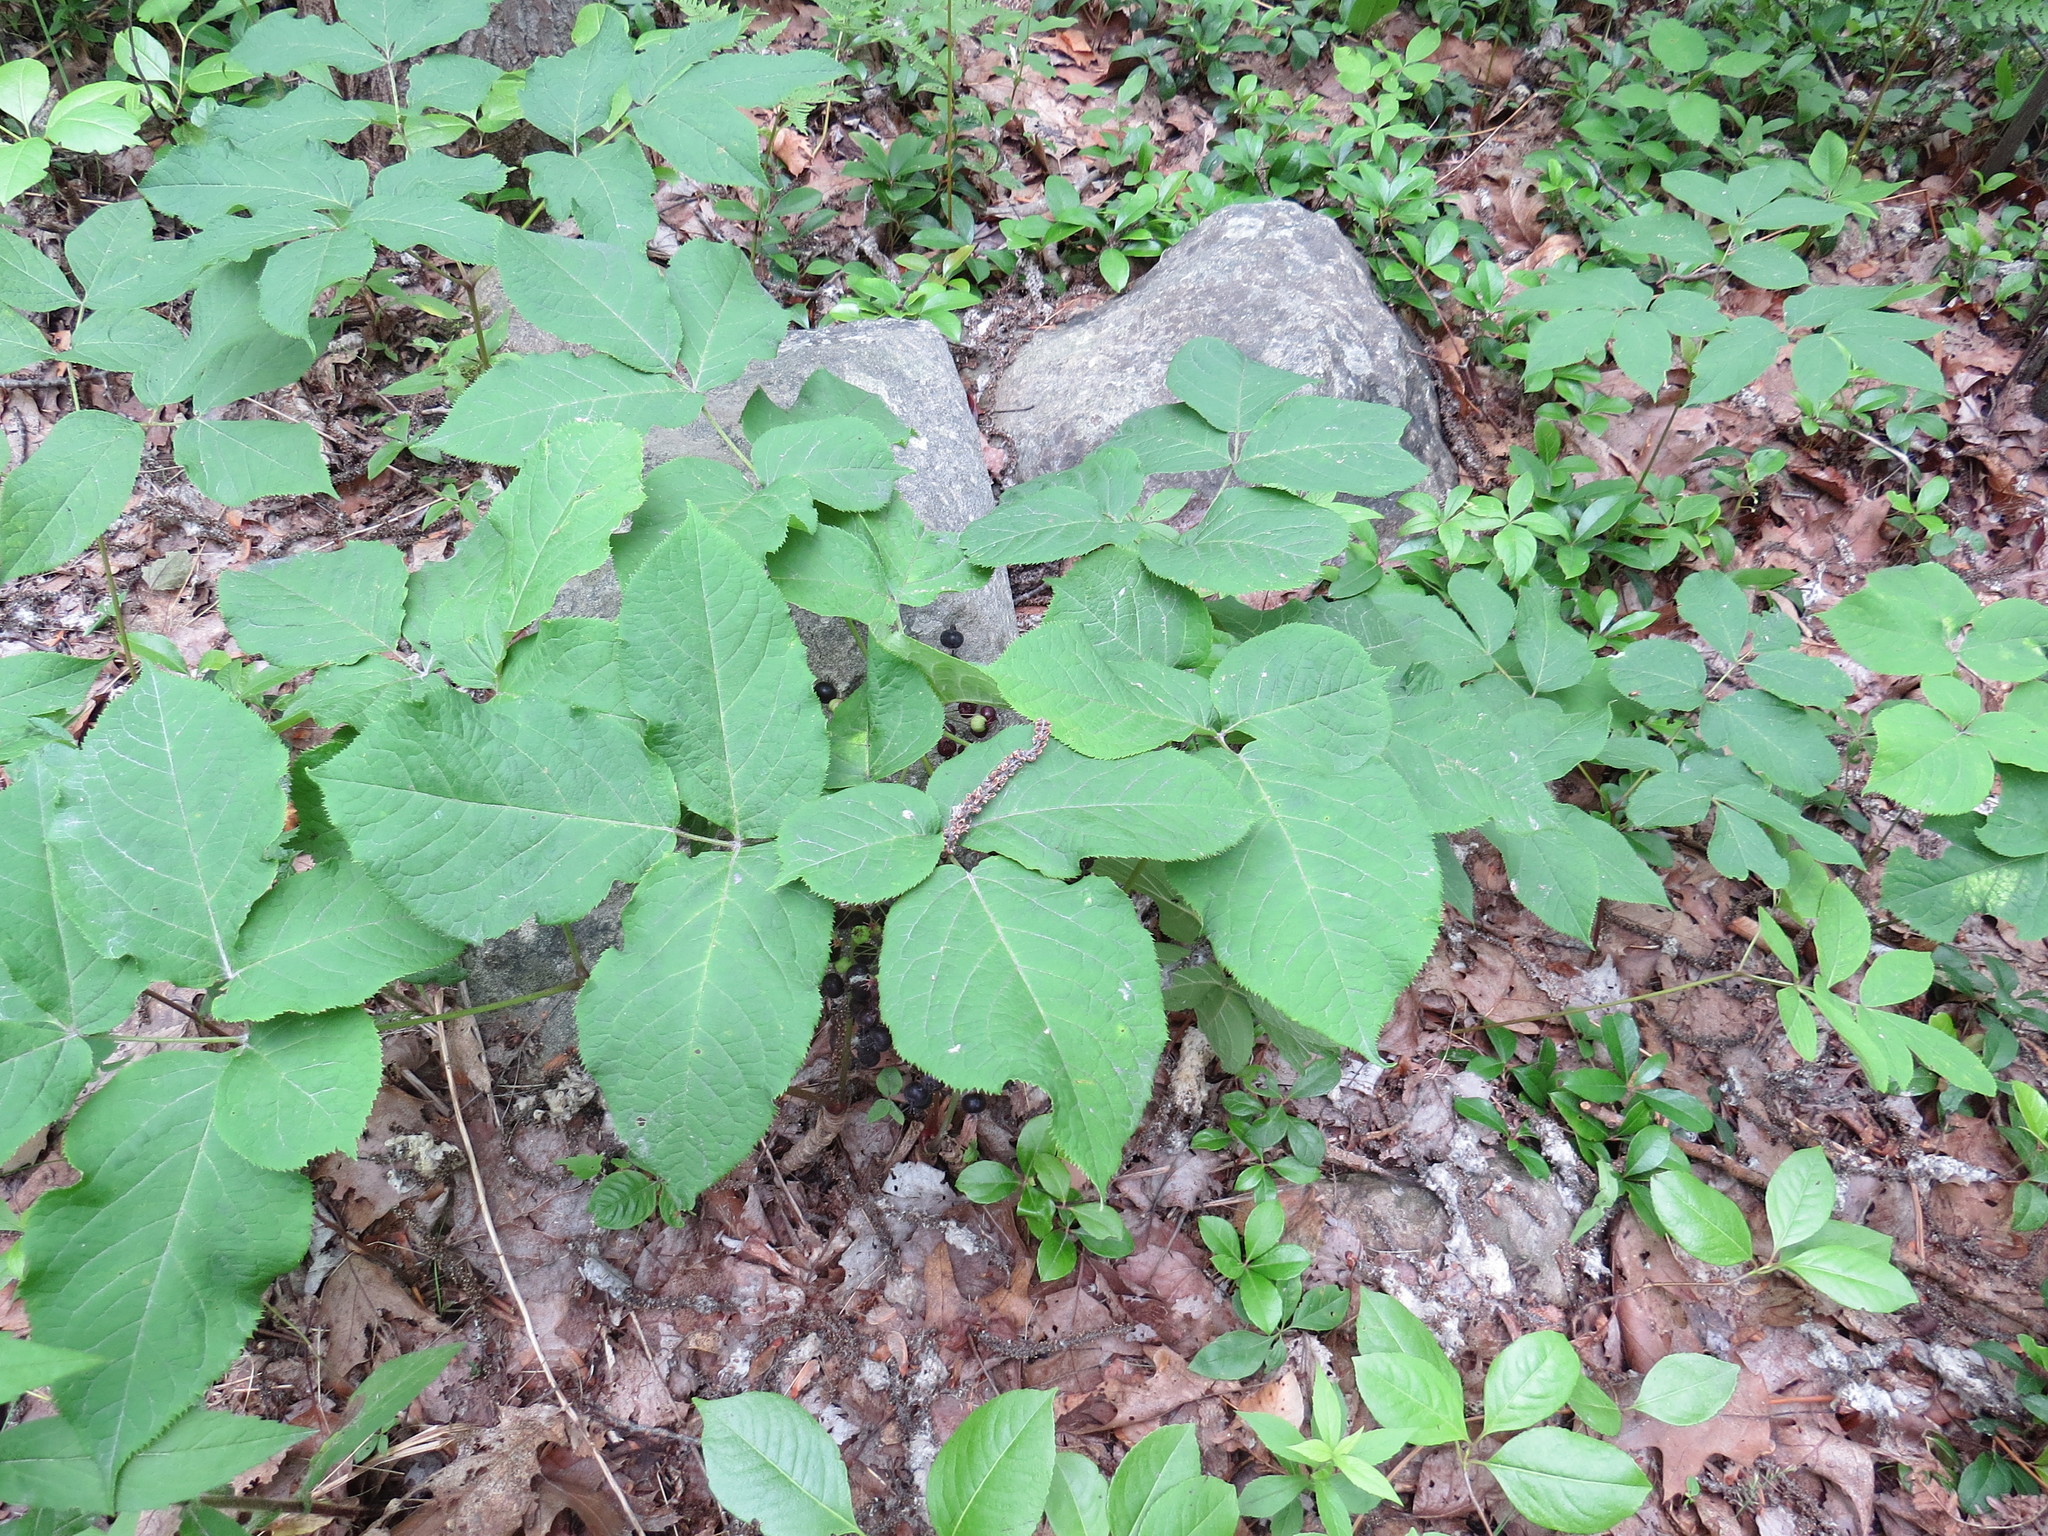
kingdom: Plantae
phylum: Tracheophyta
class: Magnoliopsida
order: Apiales
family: Araliaceae
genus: Aralia
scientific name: Aralia nudicaulis
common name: Wild sarsaparilla
